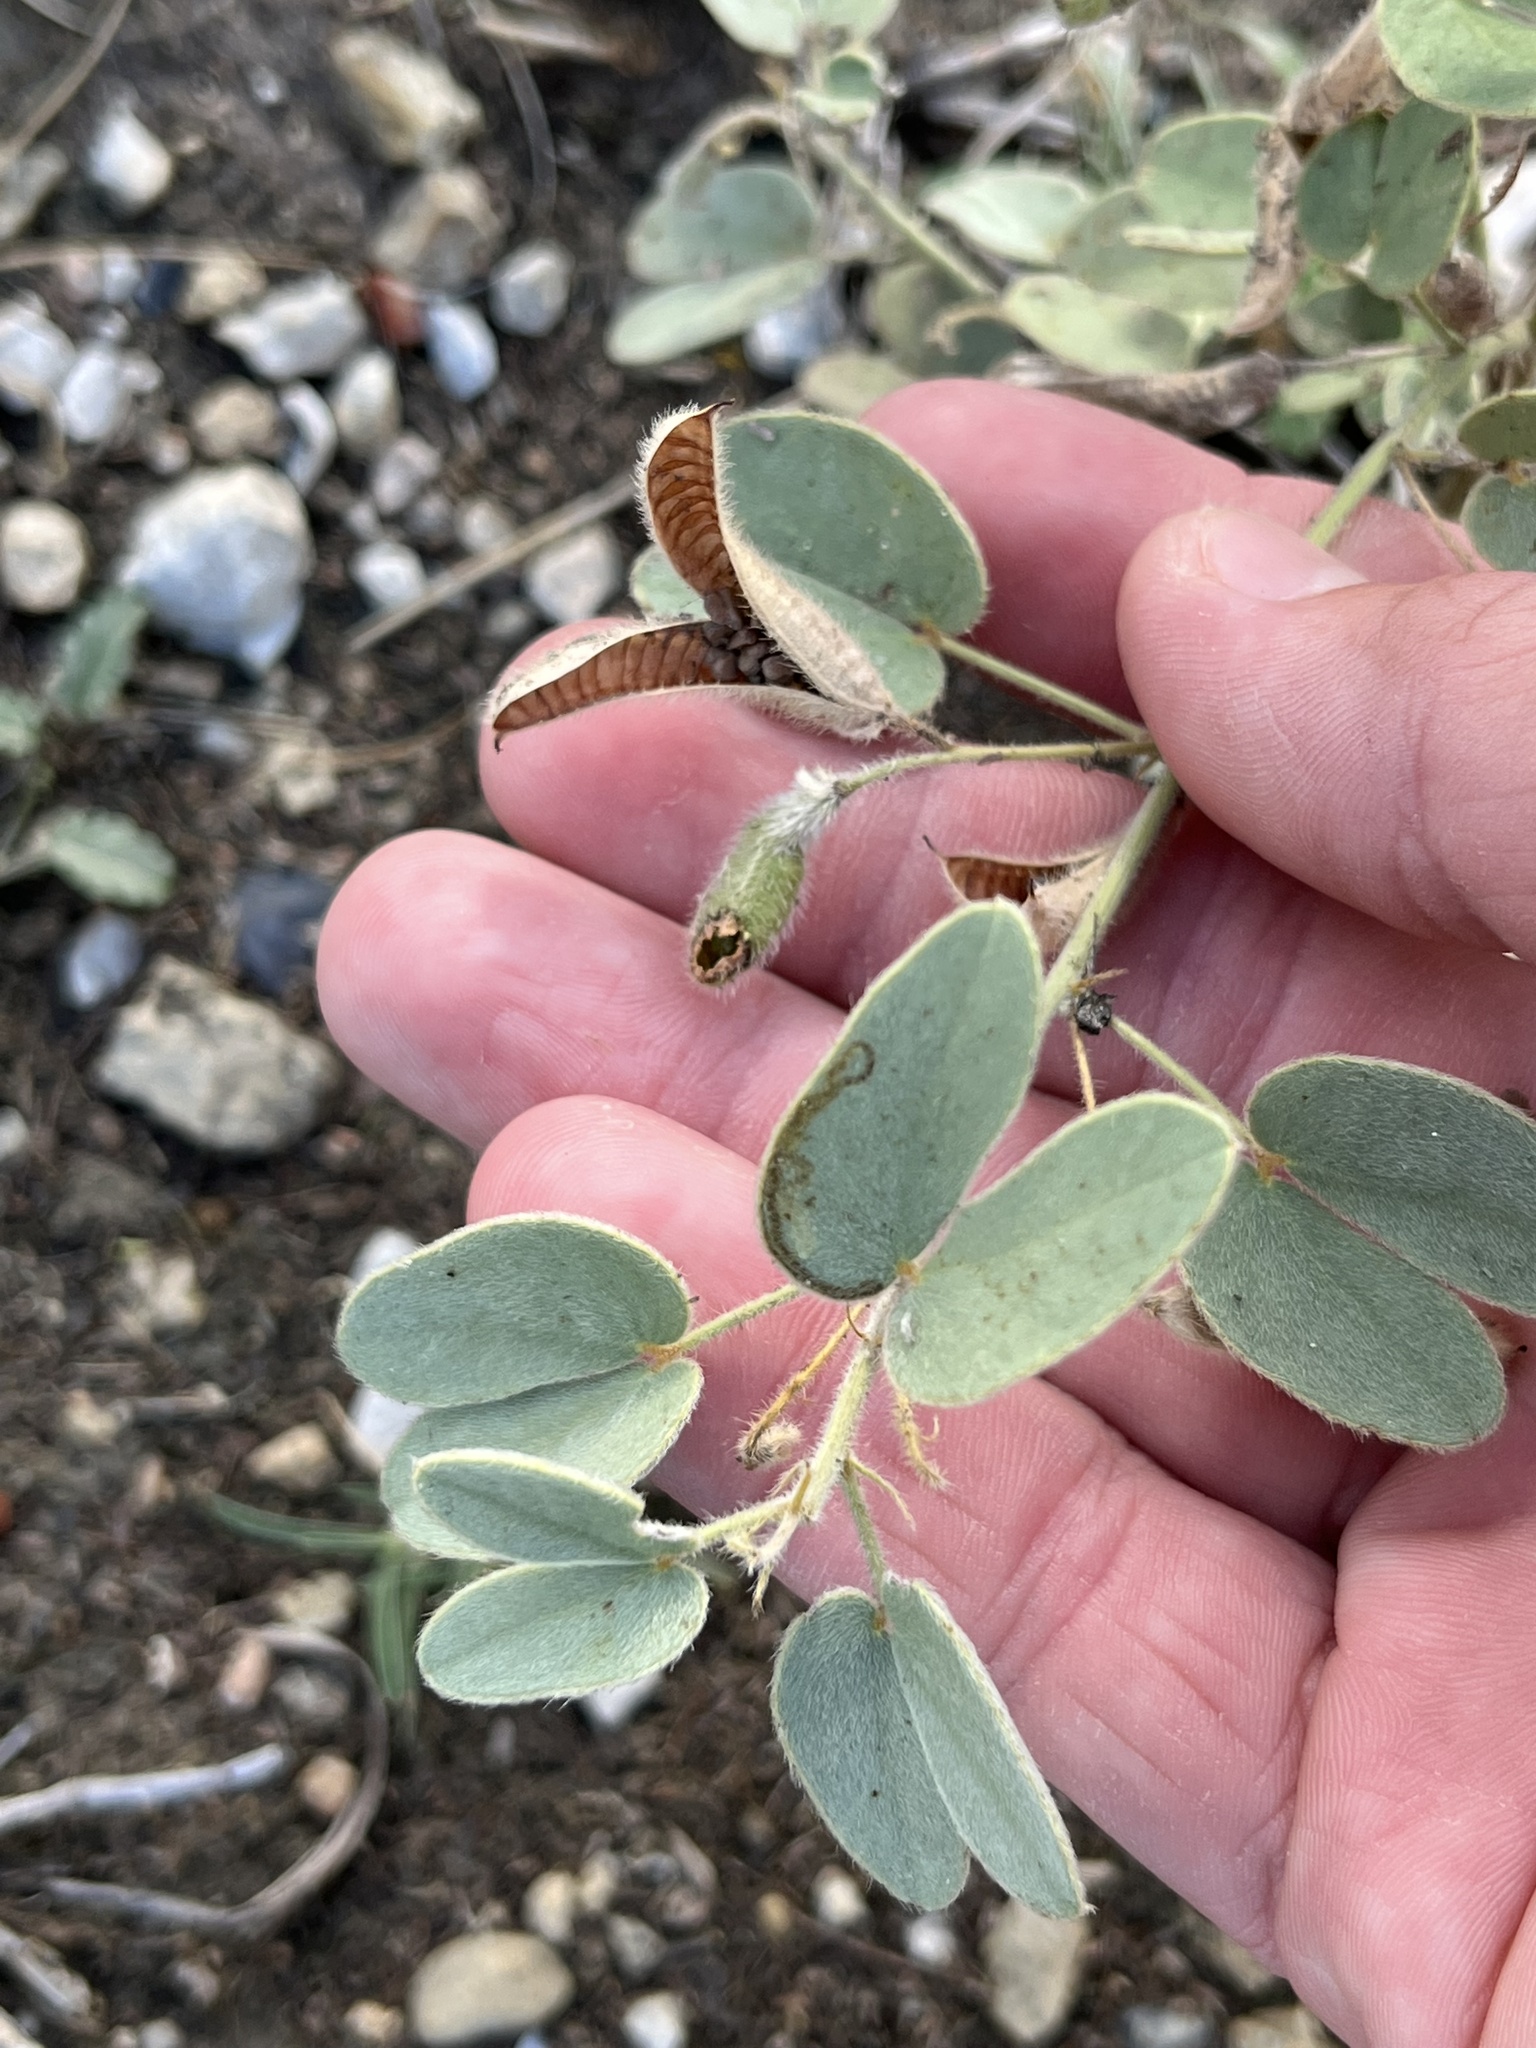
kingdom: Plantae
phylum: Tracheophyta
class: Magnoliopsida
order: Fabales
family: Fabaceae
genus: Senna
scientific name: Senna bauhinioides
